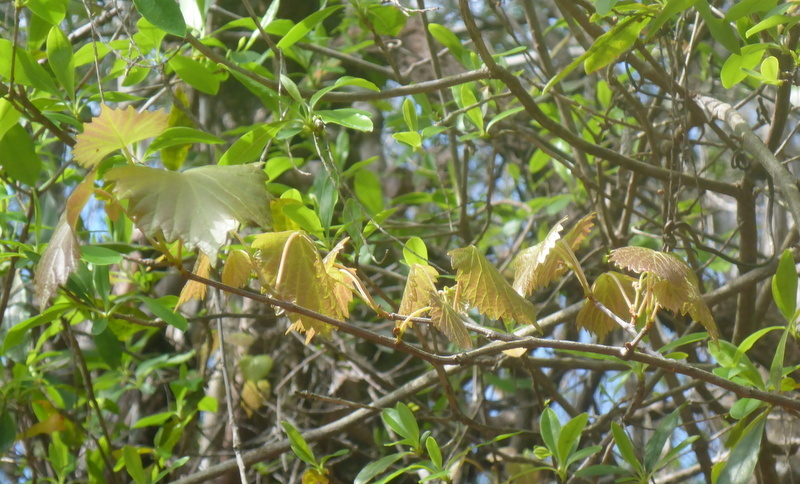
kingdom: Plantae
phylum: Tracheophyta
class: Magnoliopsida
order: Vitales
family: Vitaceae
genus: Vitis
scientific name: Vitis rotundifolia
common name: Muscadine grape
